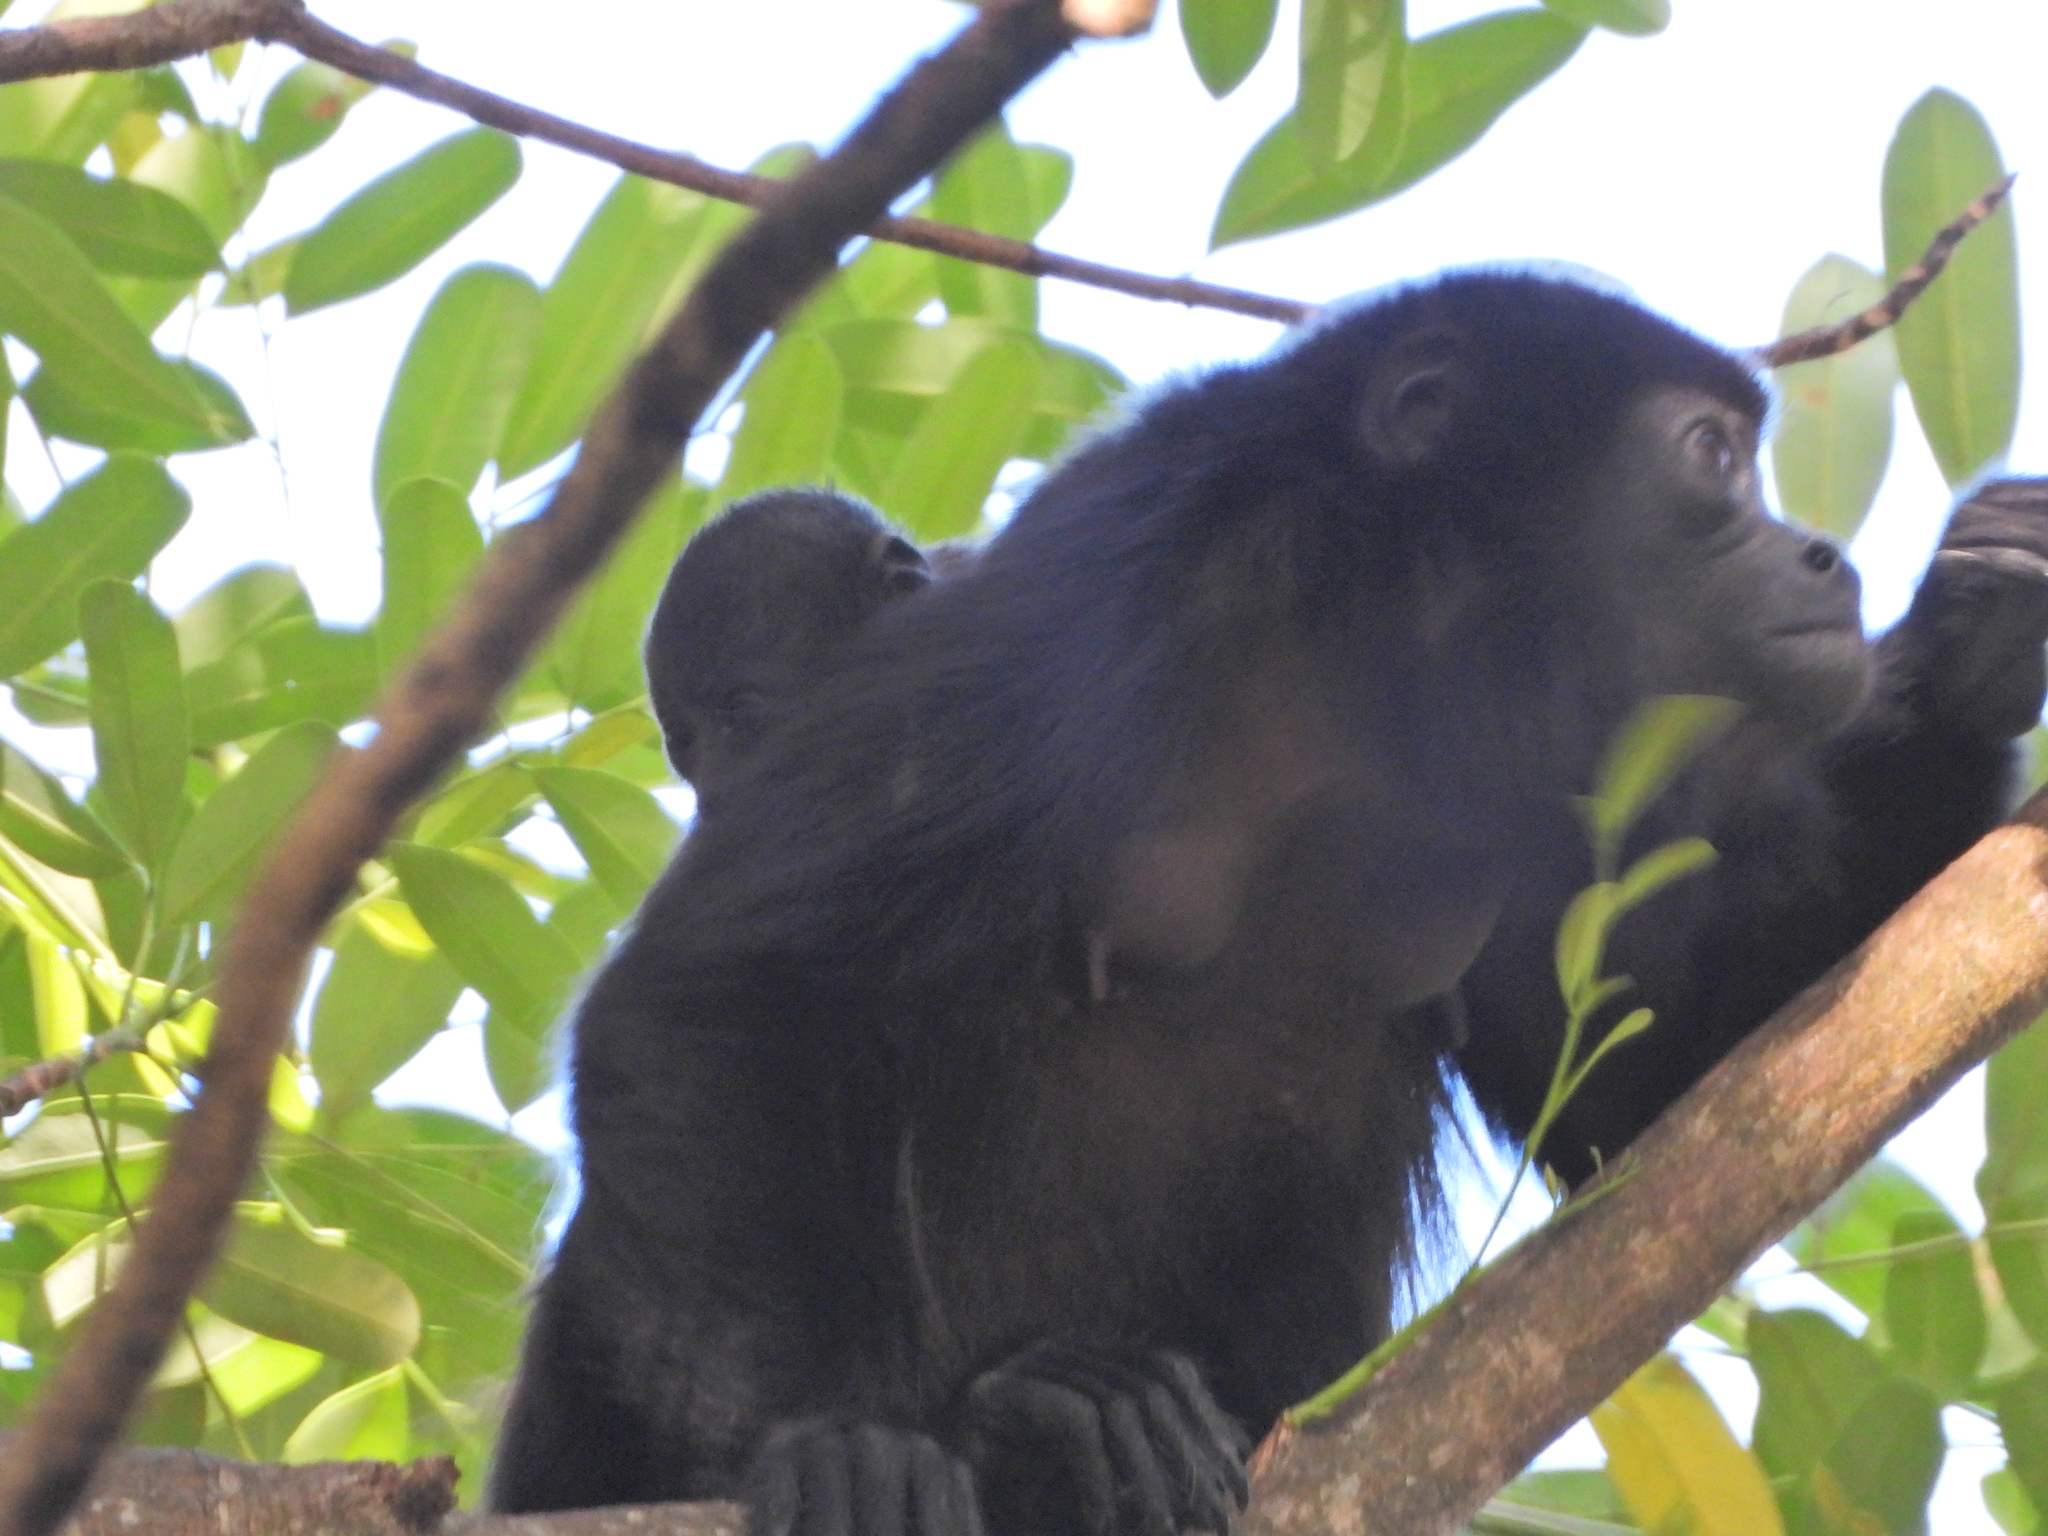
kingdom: Animalia
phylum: Chordata
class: Mammalia
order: Primates
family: Atelidae
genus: Alouatta
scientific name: Alouatta palliata
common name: Mantled howler
